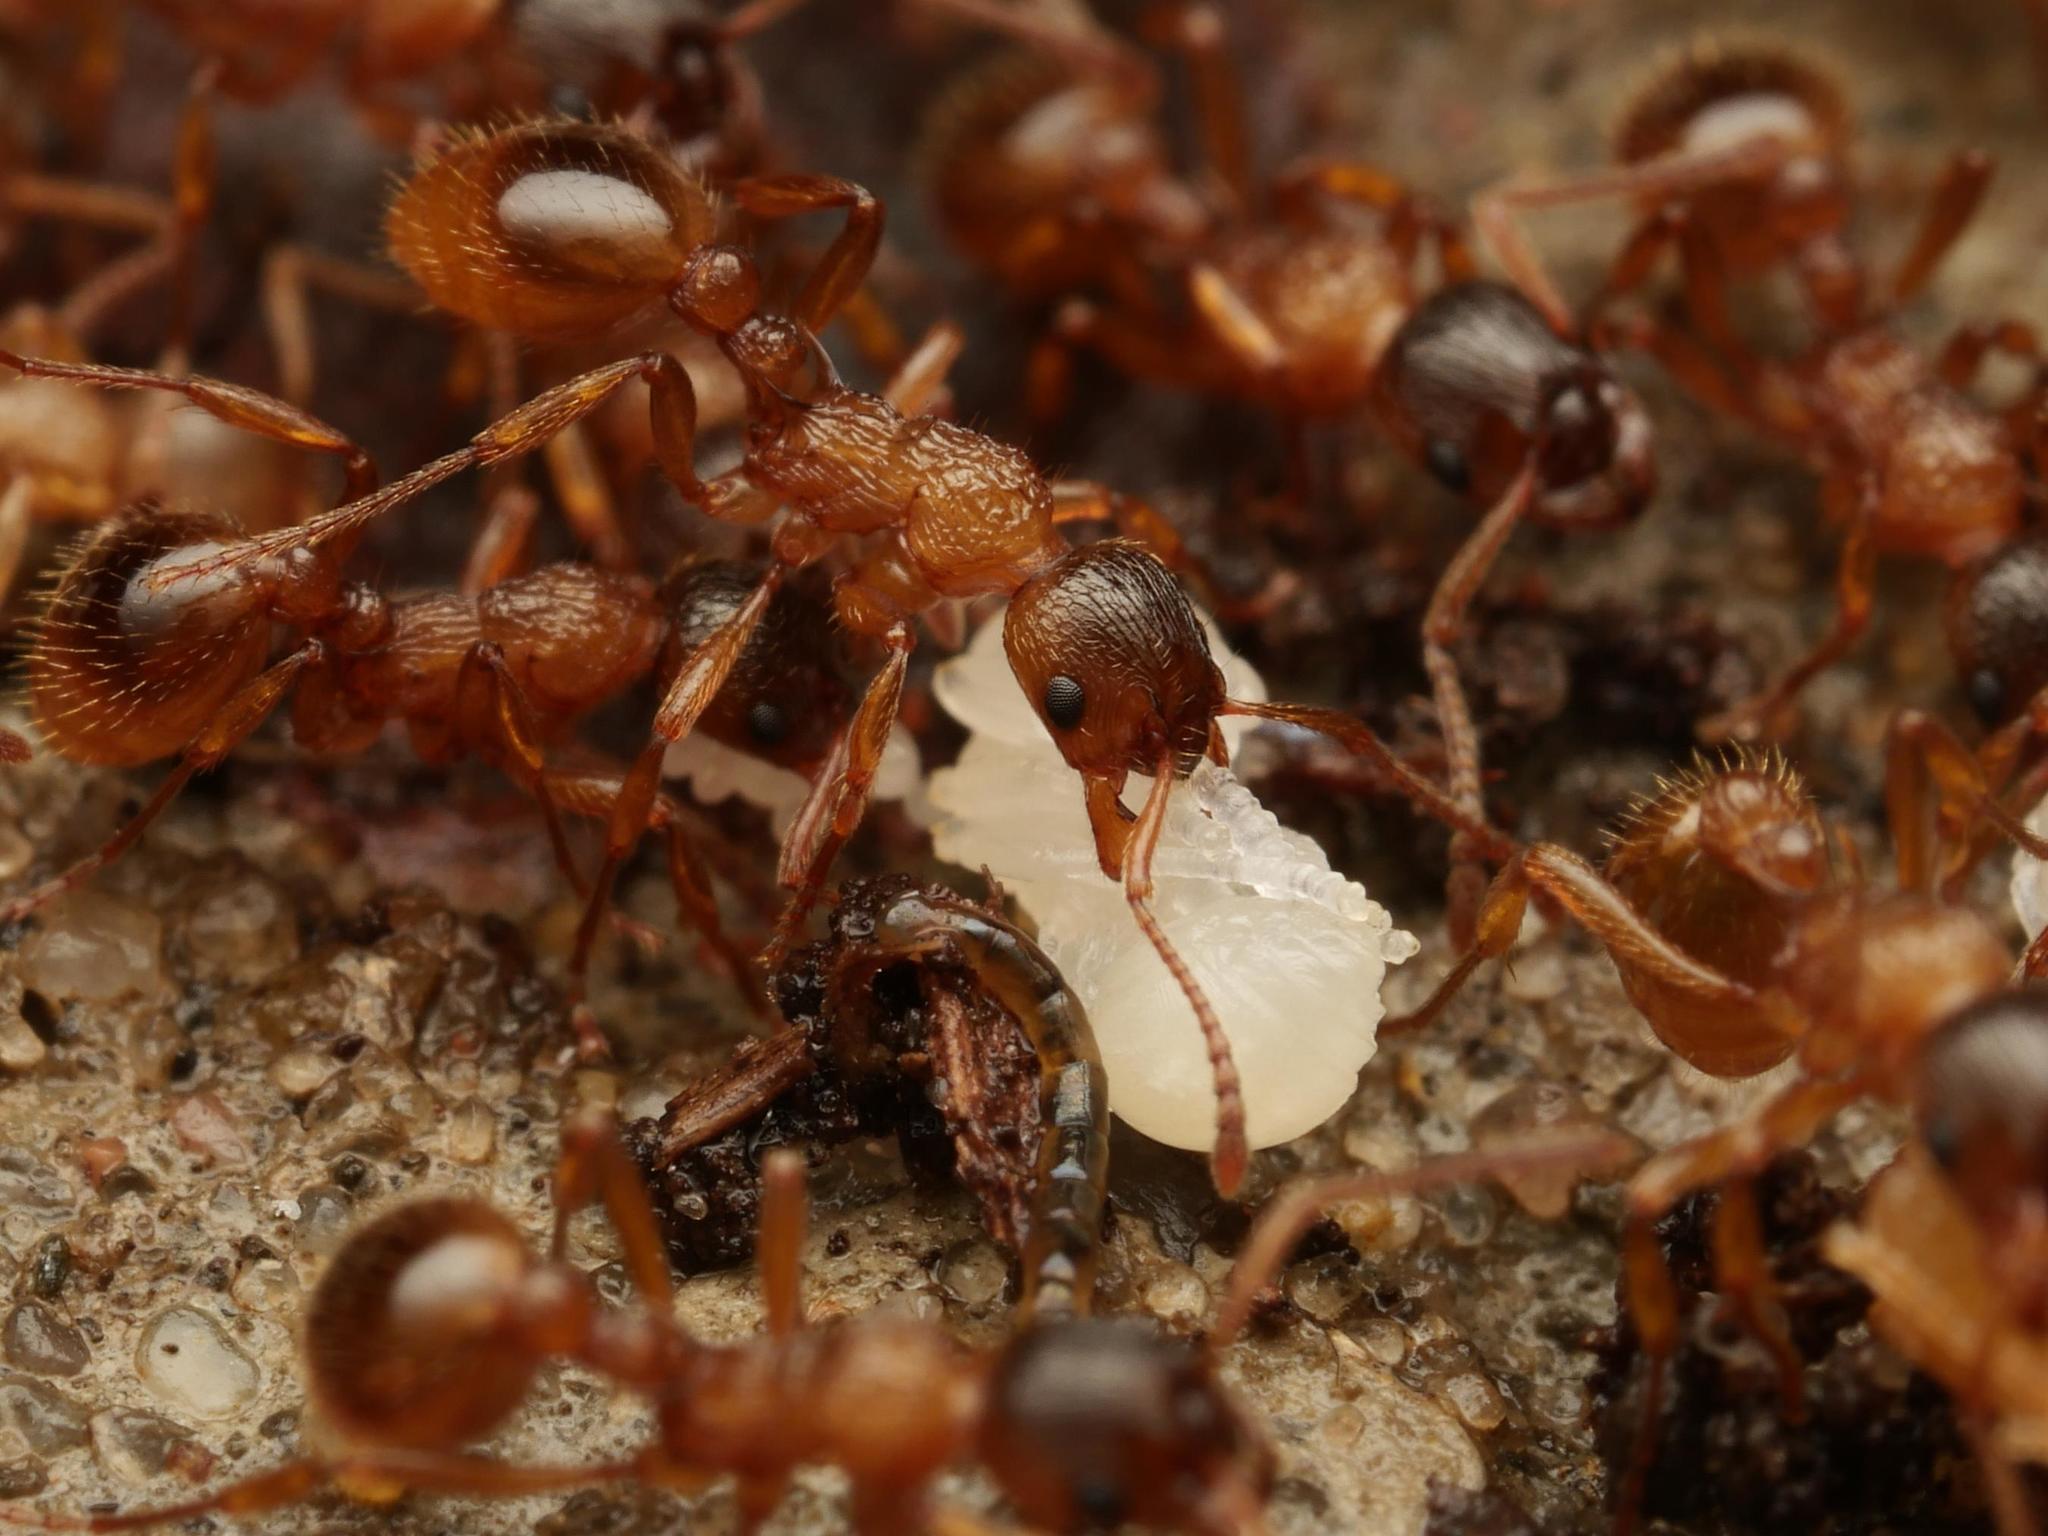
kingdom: Animalia
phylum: Arthropoda
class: Insecta
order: Hymenoptera
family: Formicidae
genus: Myrmica
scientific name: Myrmica ruginodis
